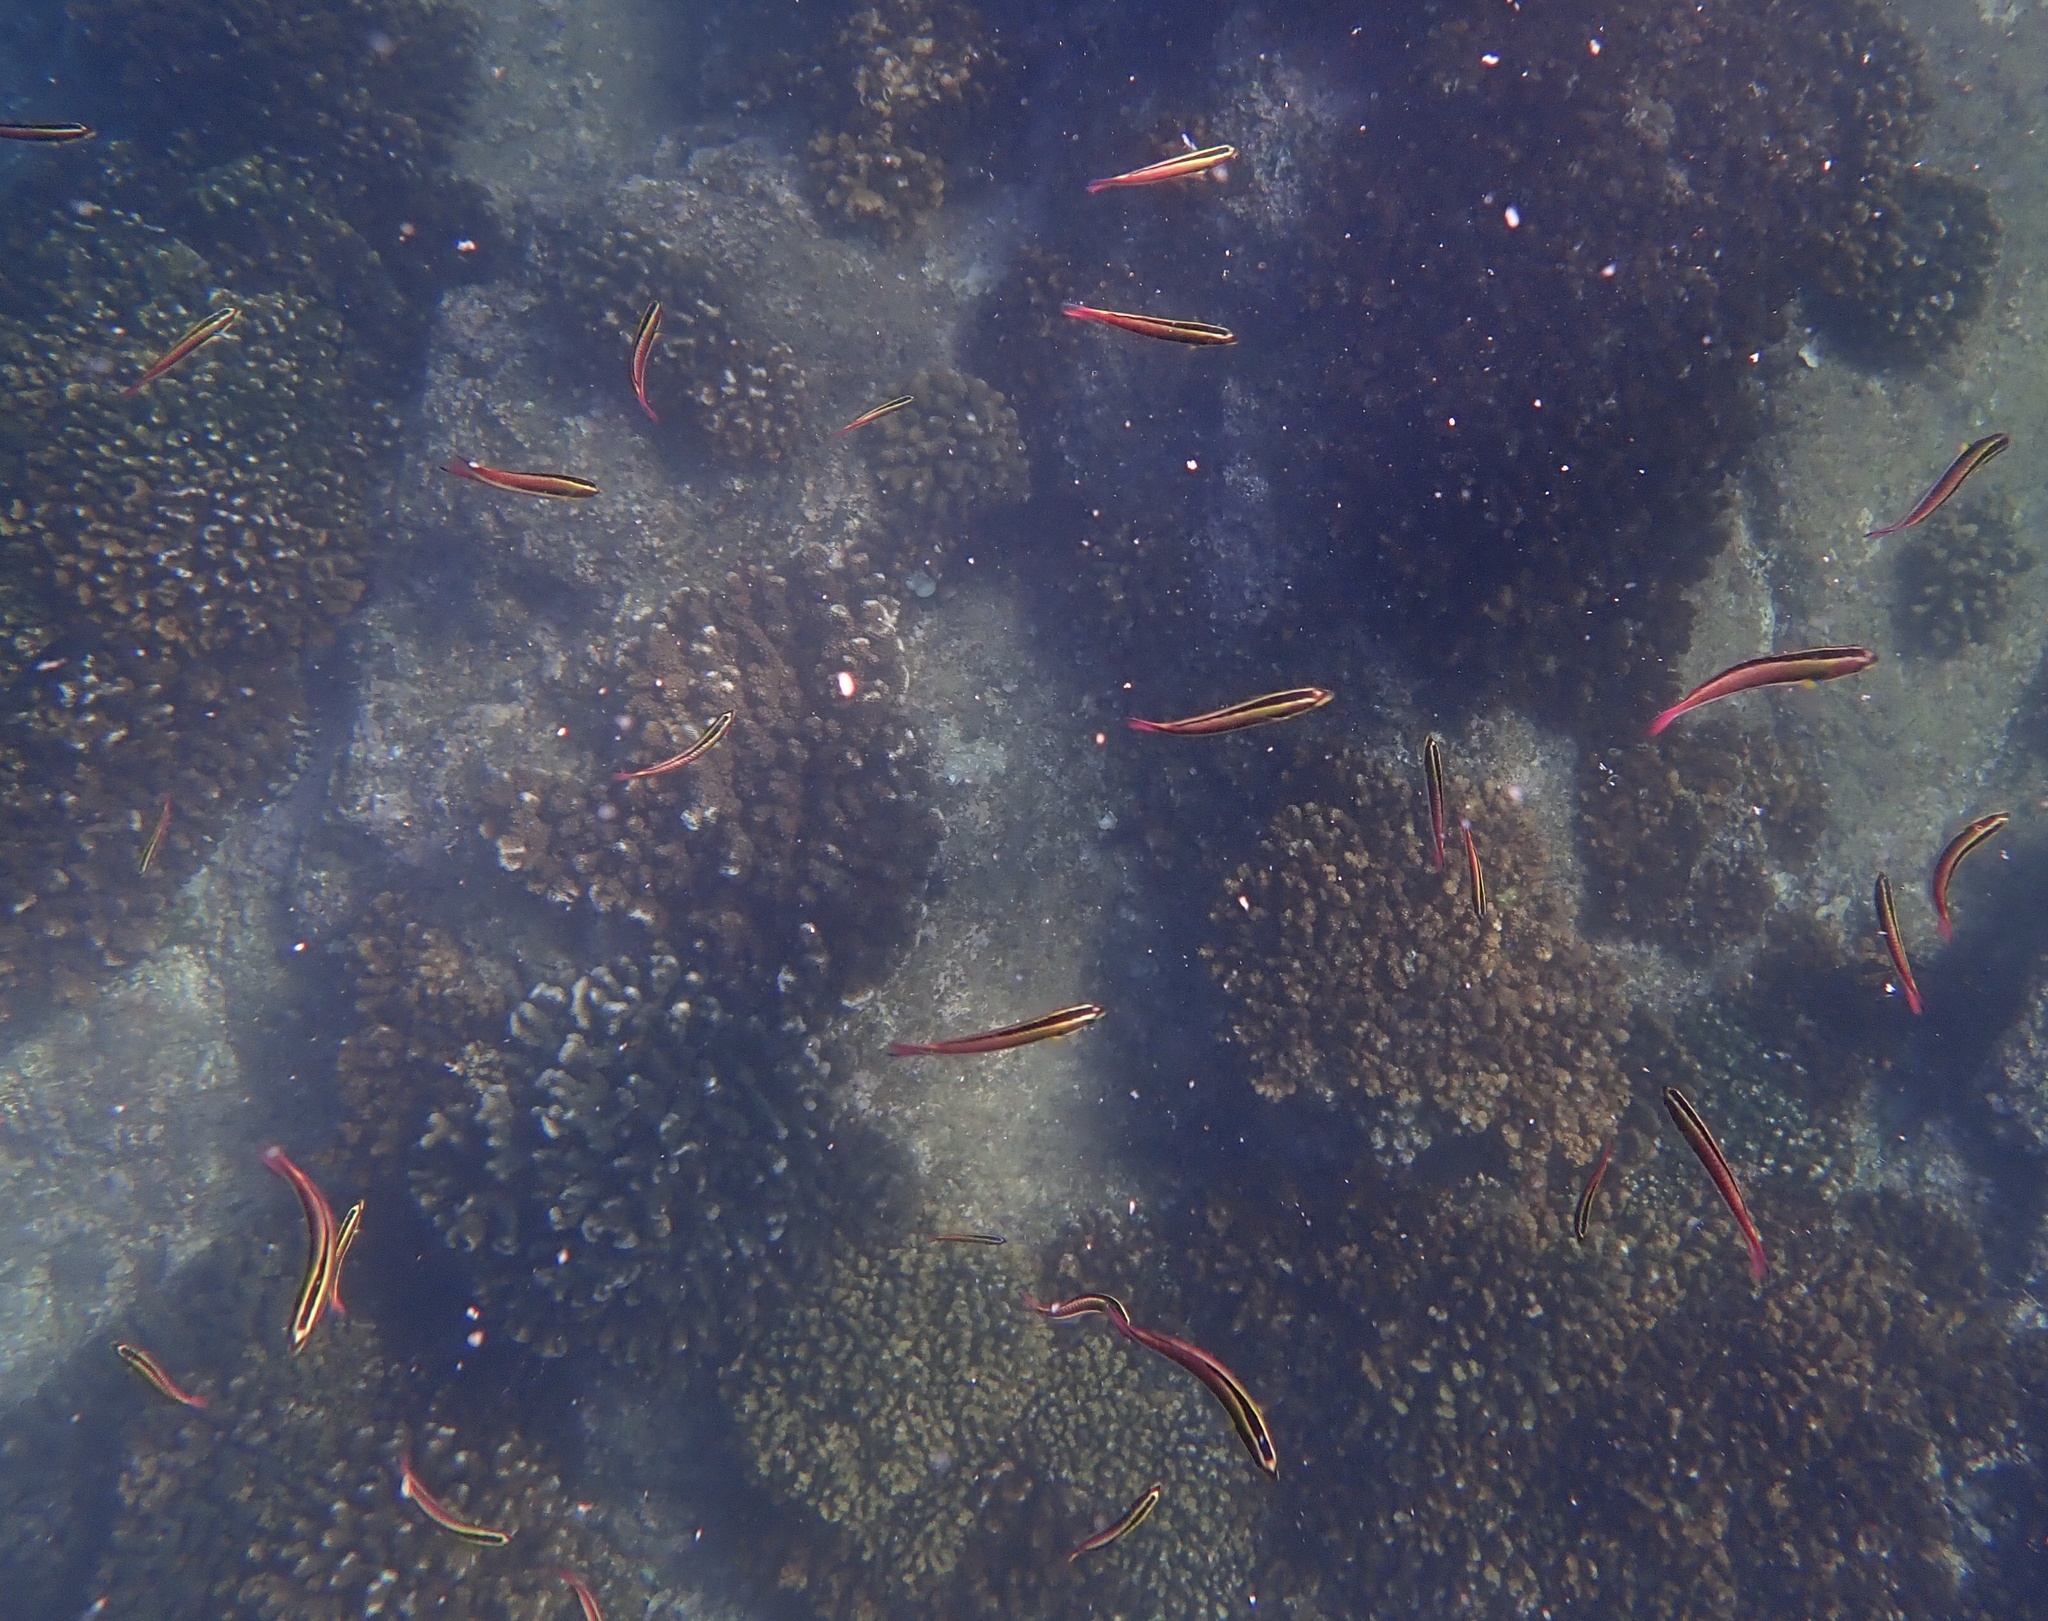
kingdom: Animalia
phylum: Chordata
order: Perciformes
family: Labridae
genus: Thalassoma
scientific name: Thalassoma lucasanum
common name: Cortez rainbow wrasse
